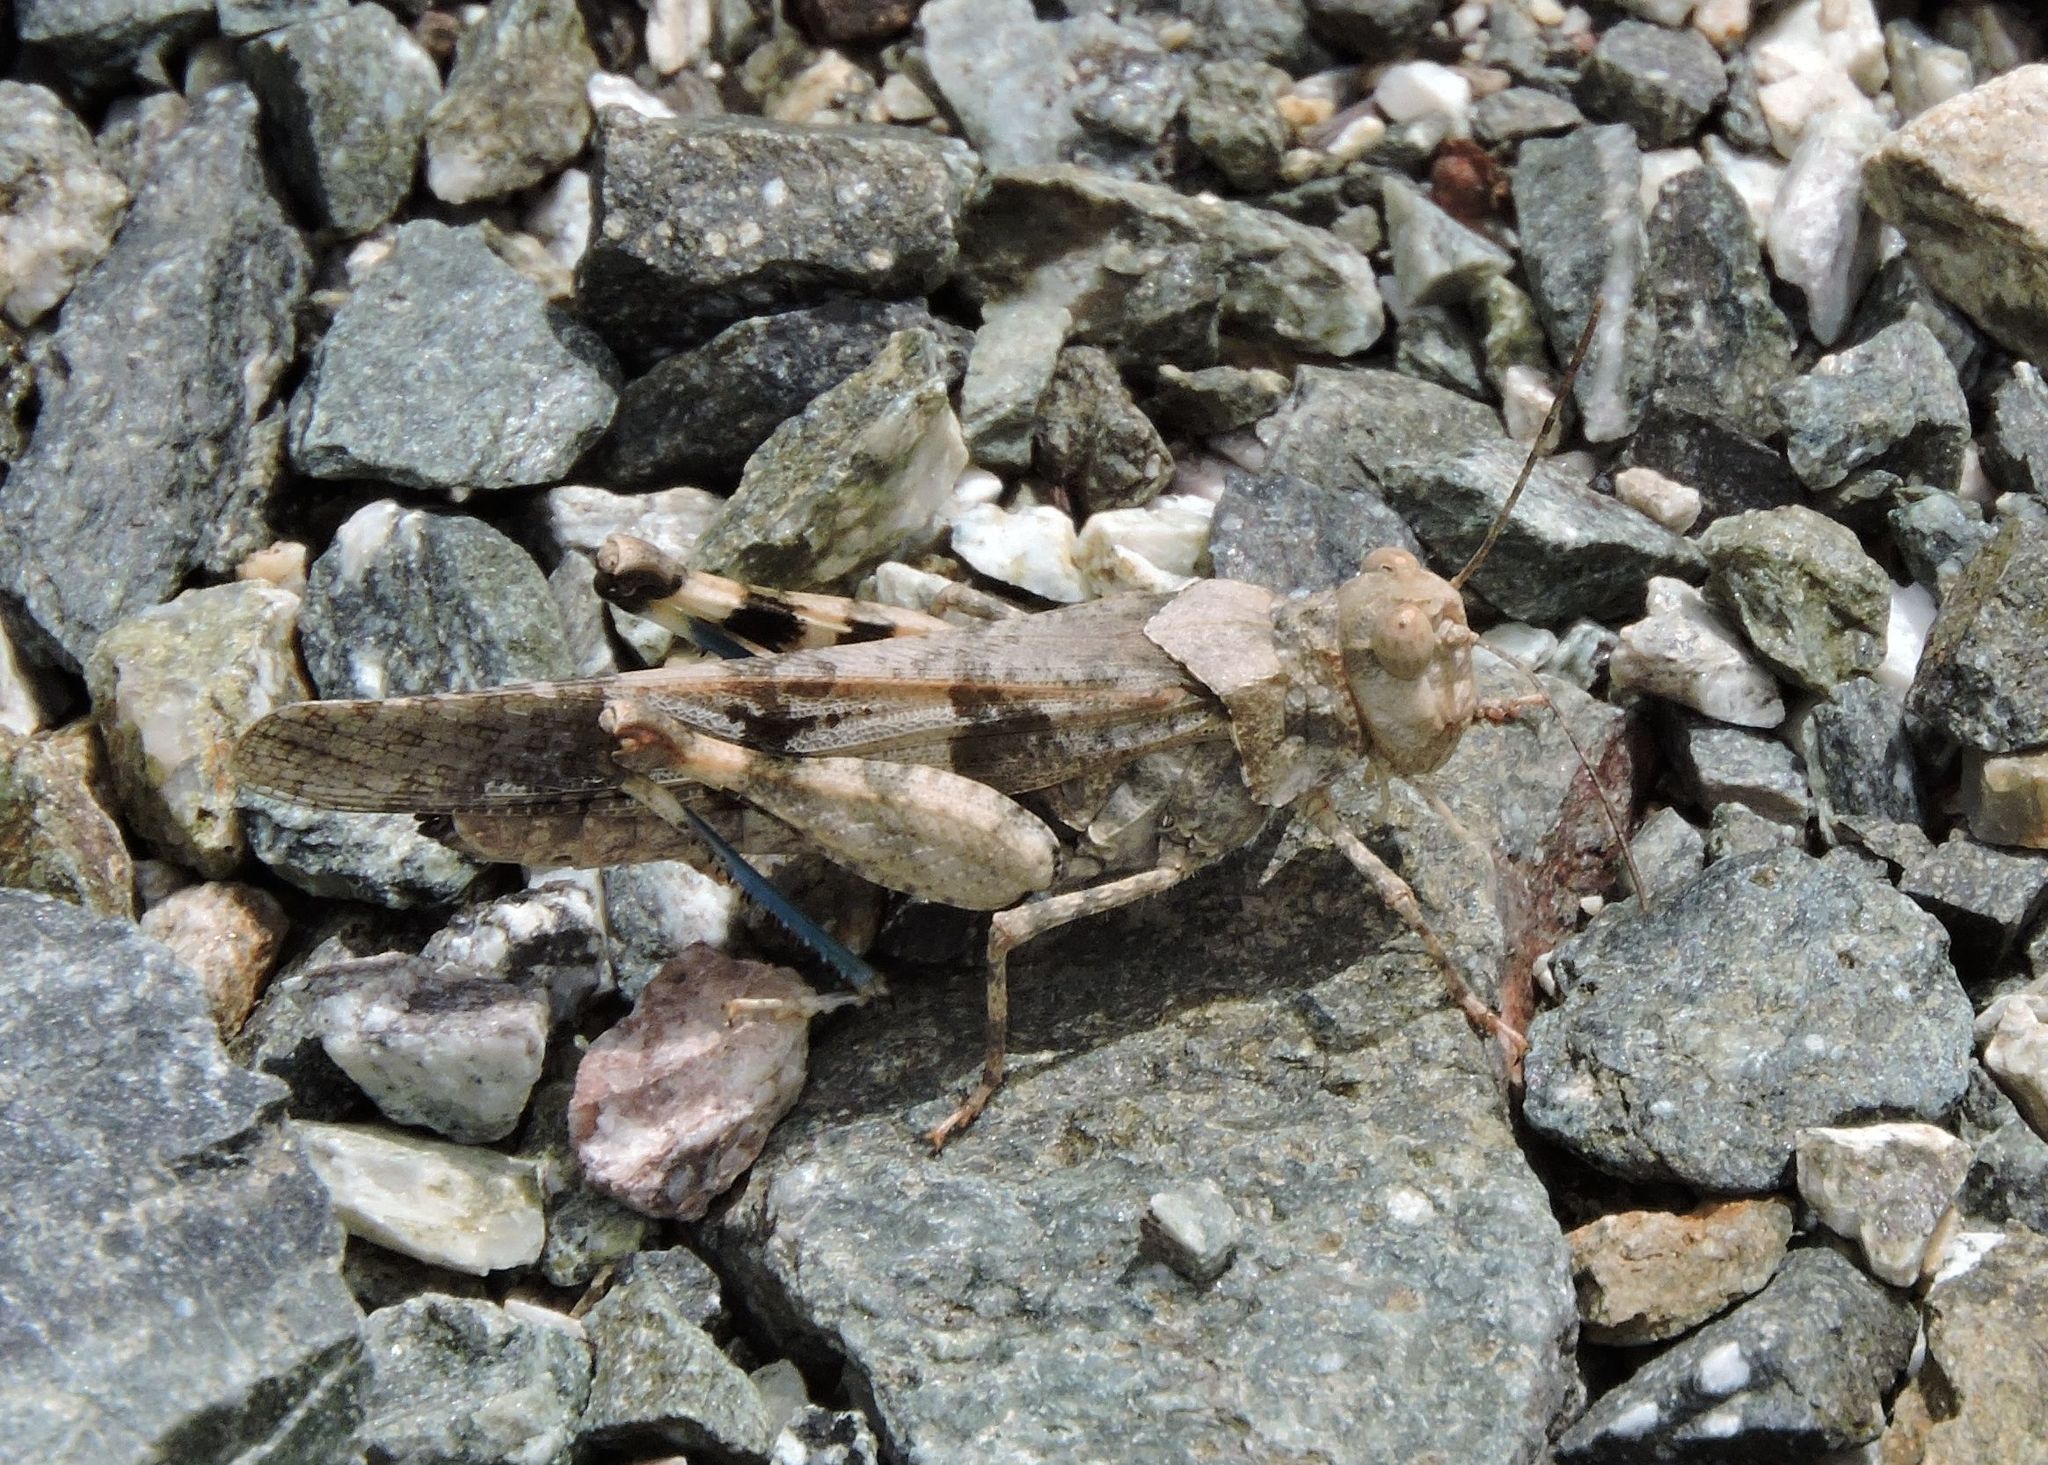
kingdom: Animalia
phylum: Arthropoda
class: Insecta
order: Orthoptera
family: Acrididae
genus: Trimerotropis
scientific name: Trimerotropis fontana
